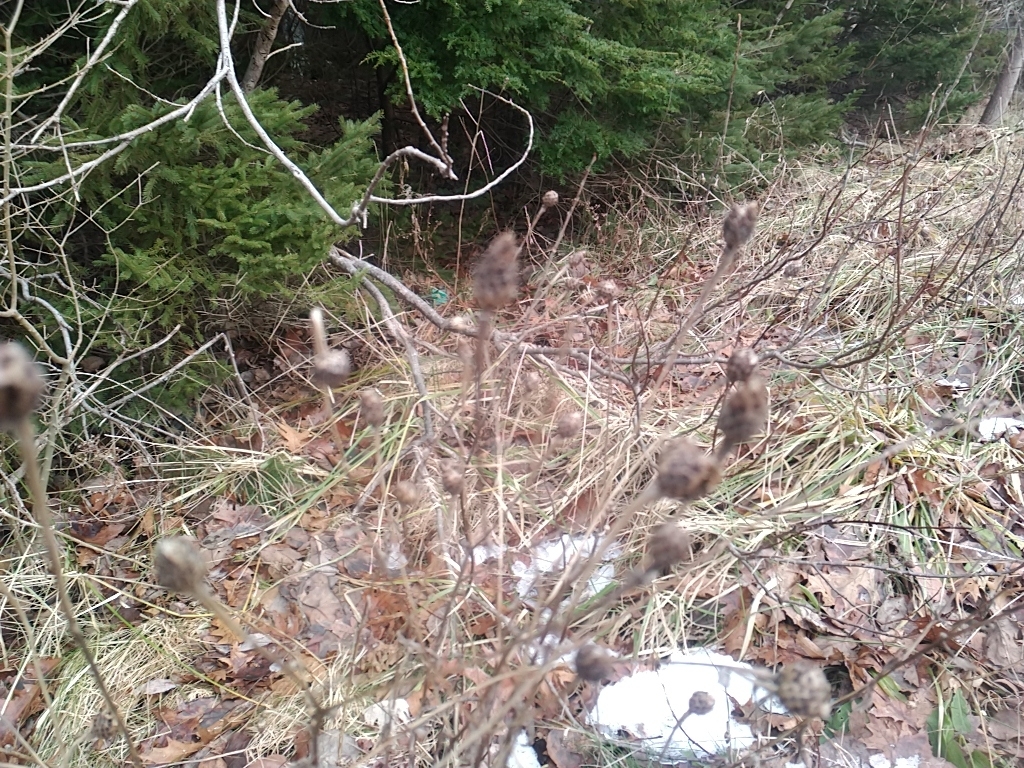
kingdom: Plantae
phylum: Tracheophyta
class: Magnoliopsida
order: Asterales
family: Asteraceae
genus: Centaurea
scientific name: Centaurea nigra
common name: Lesser knapweed
